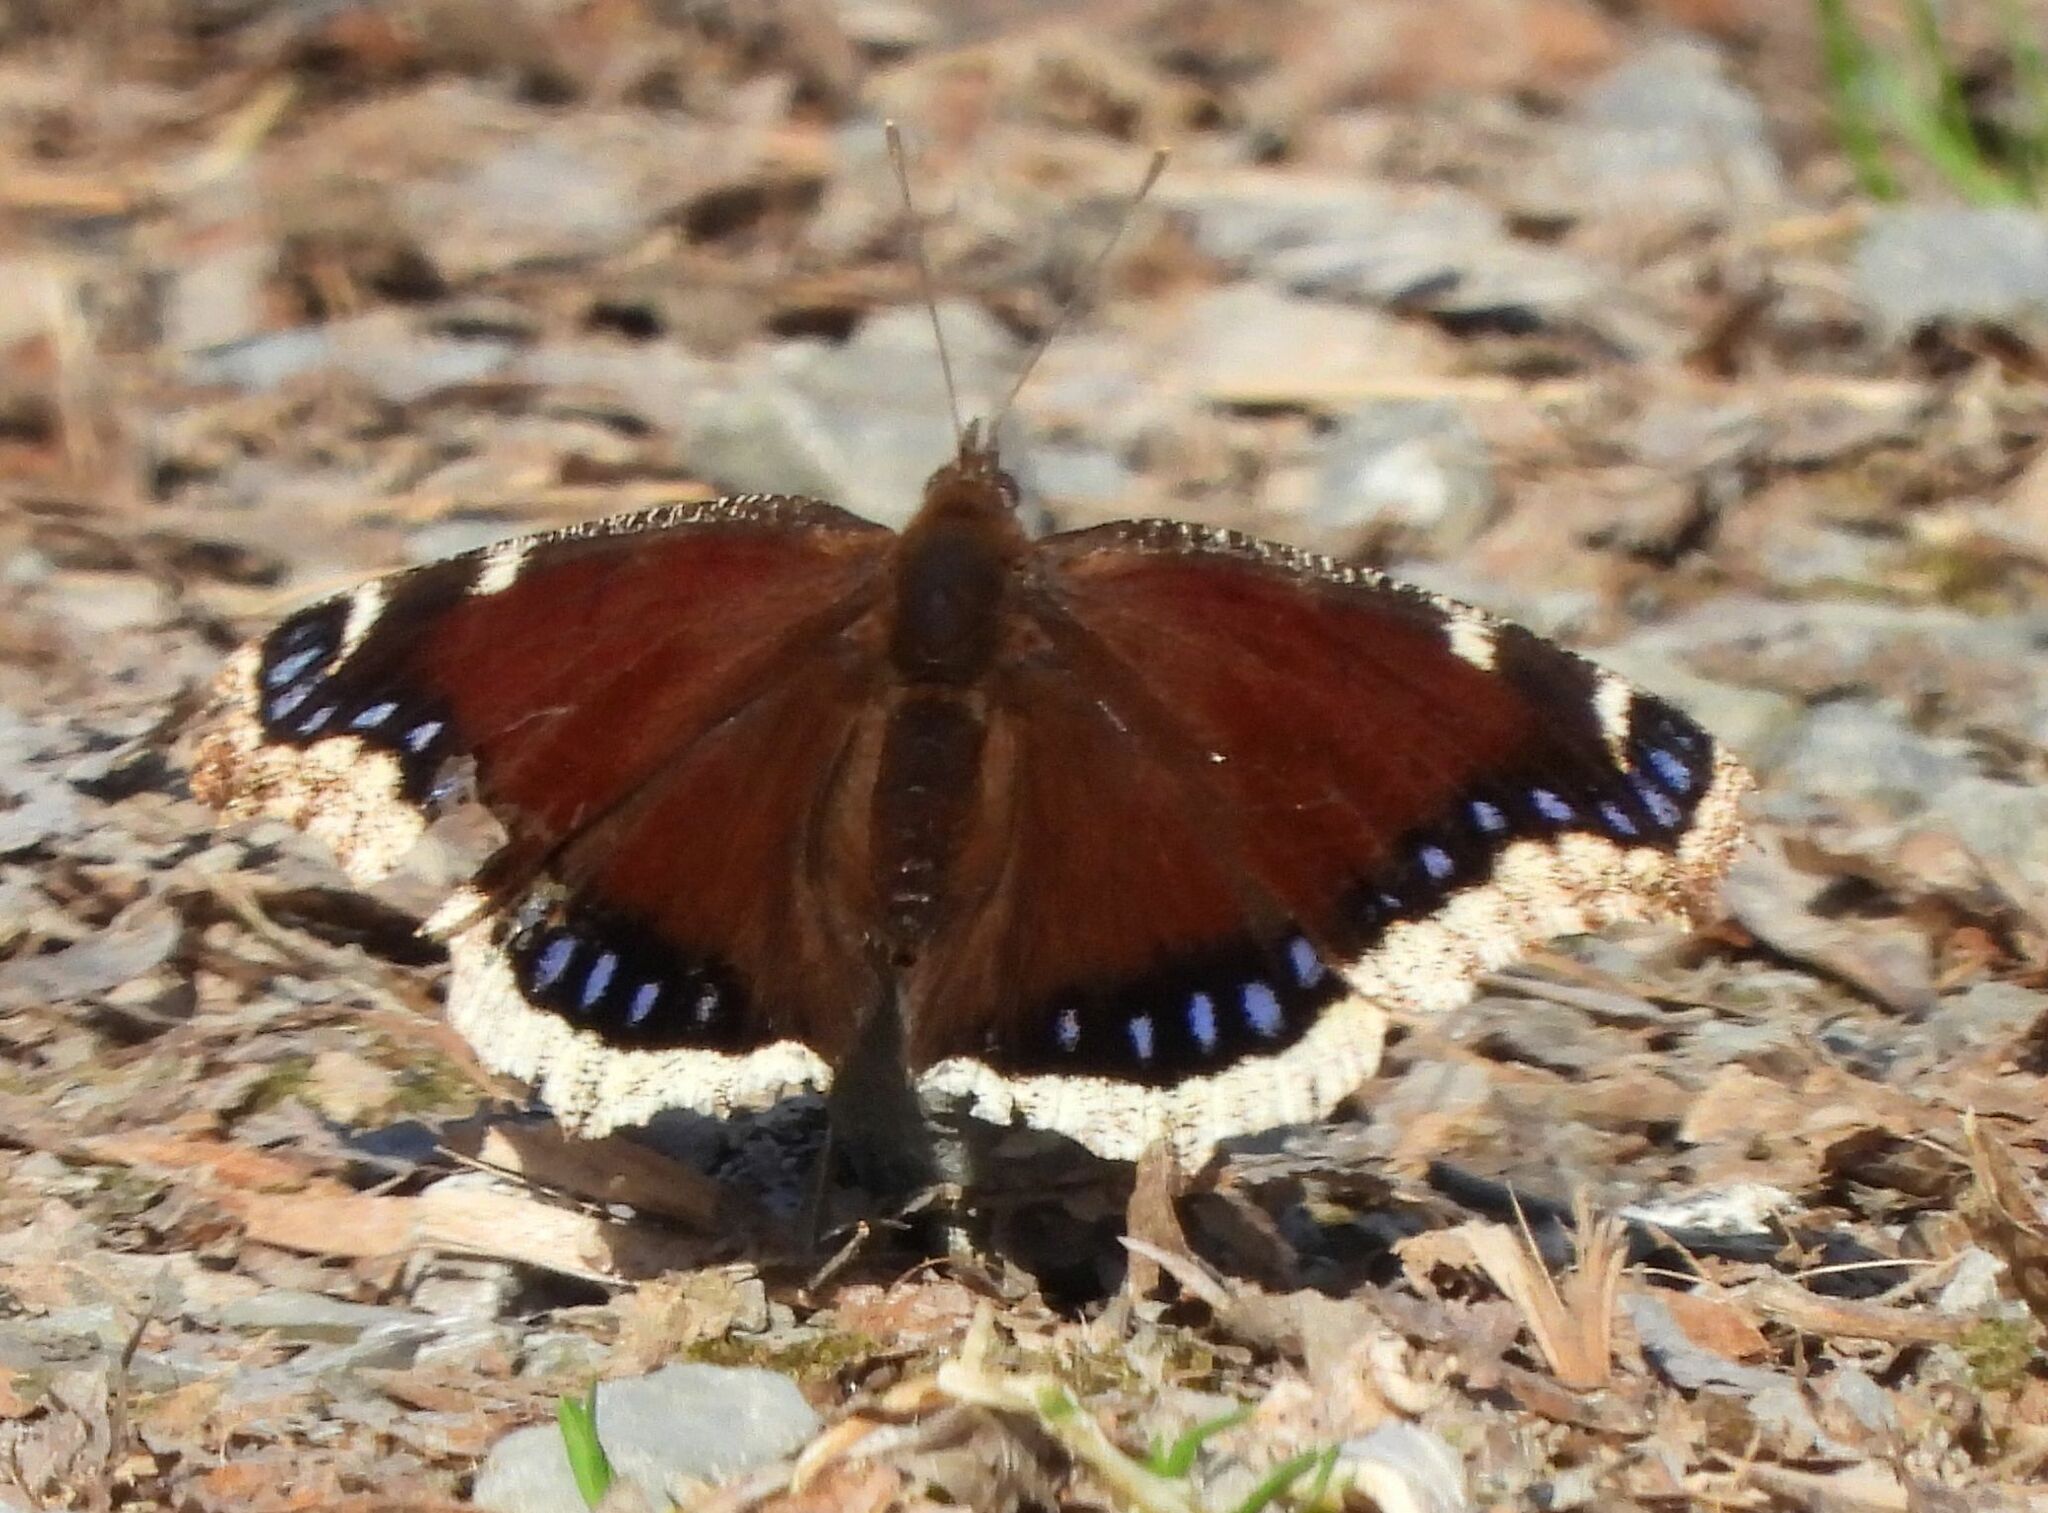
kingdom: Animalia
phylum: Arthropoda
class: Insecta
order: Lepidoptera
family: Nymphalidae
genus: Nymphalis
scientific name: Nymphalis antiopa
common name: Camberwell beauty
